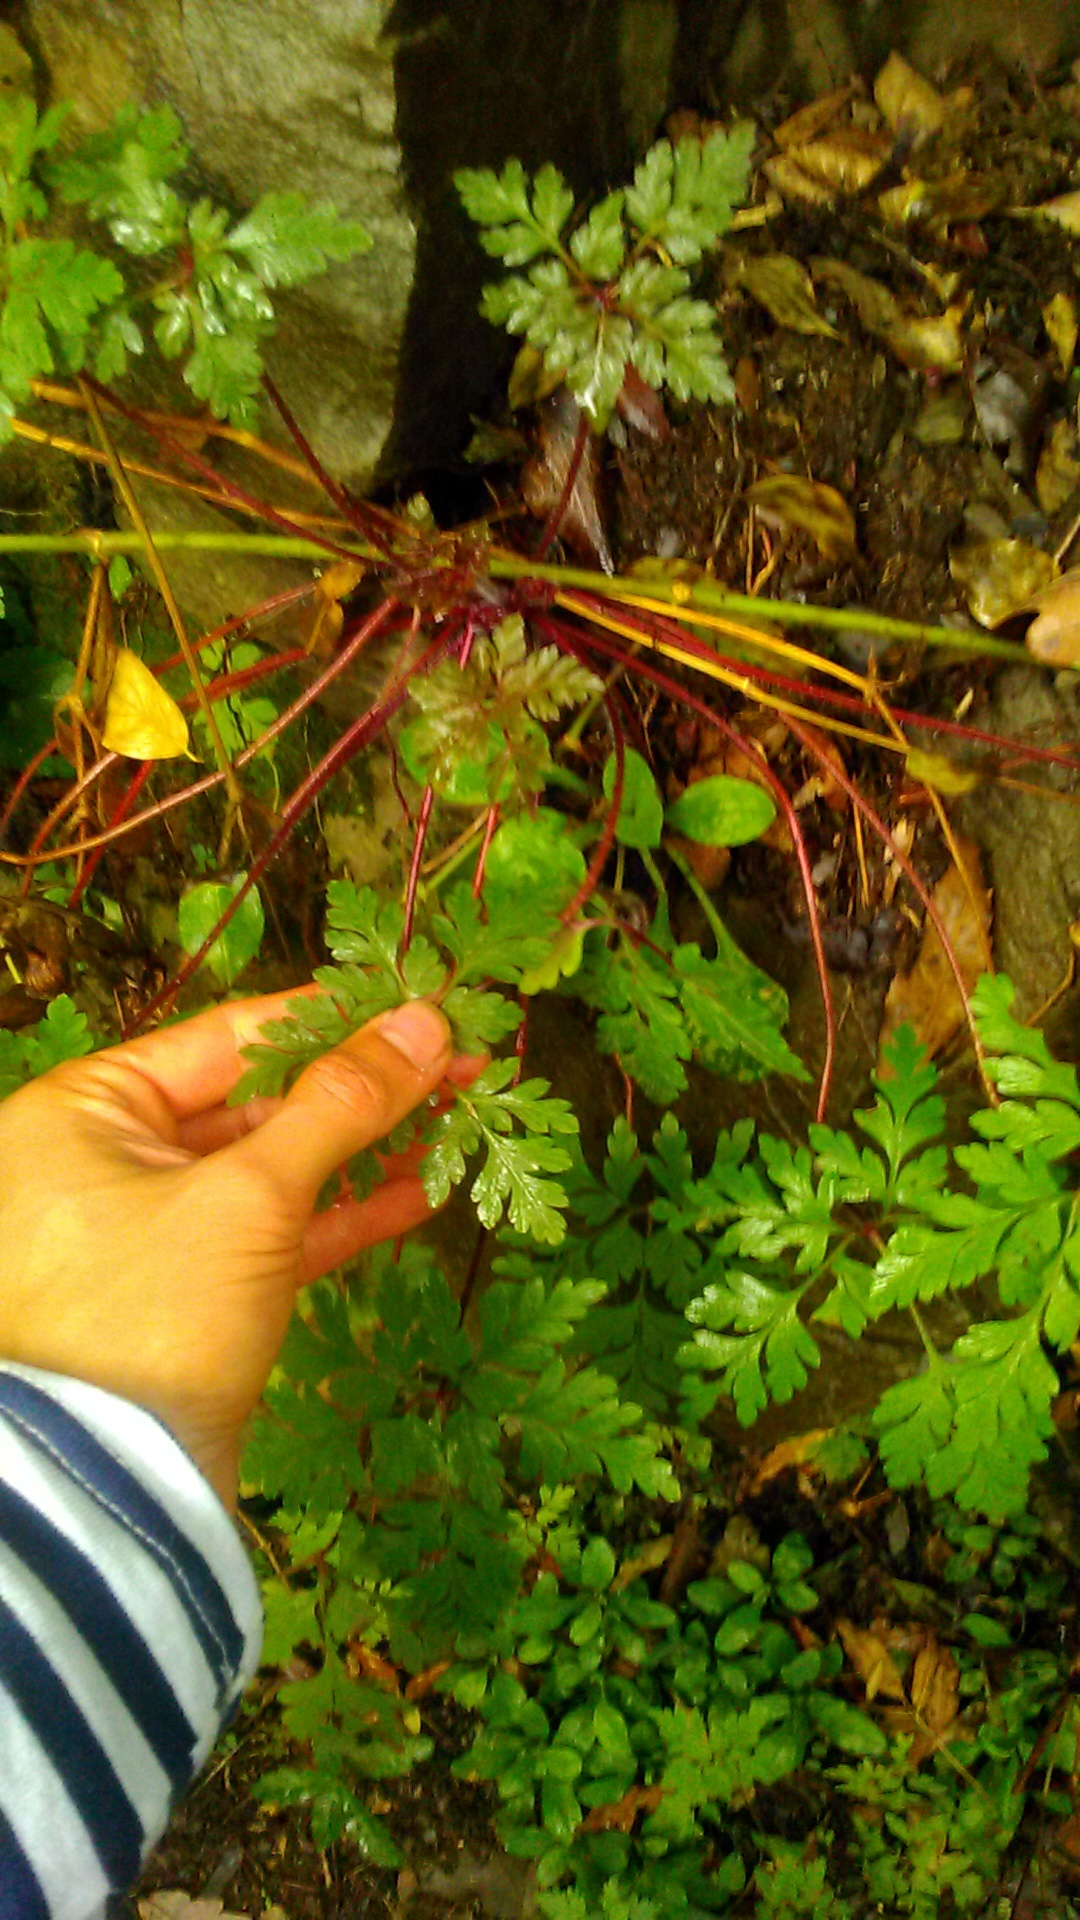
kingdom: Plantae
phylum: Tracheophyta
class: Magnoliopsida
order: Geraniales
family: Geraniaceae
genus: Geranium
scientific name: Geranium robertianum
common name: Herb-robert
